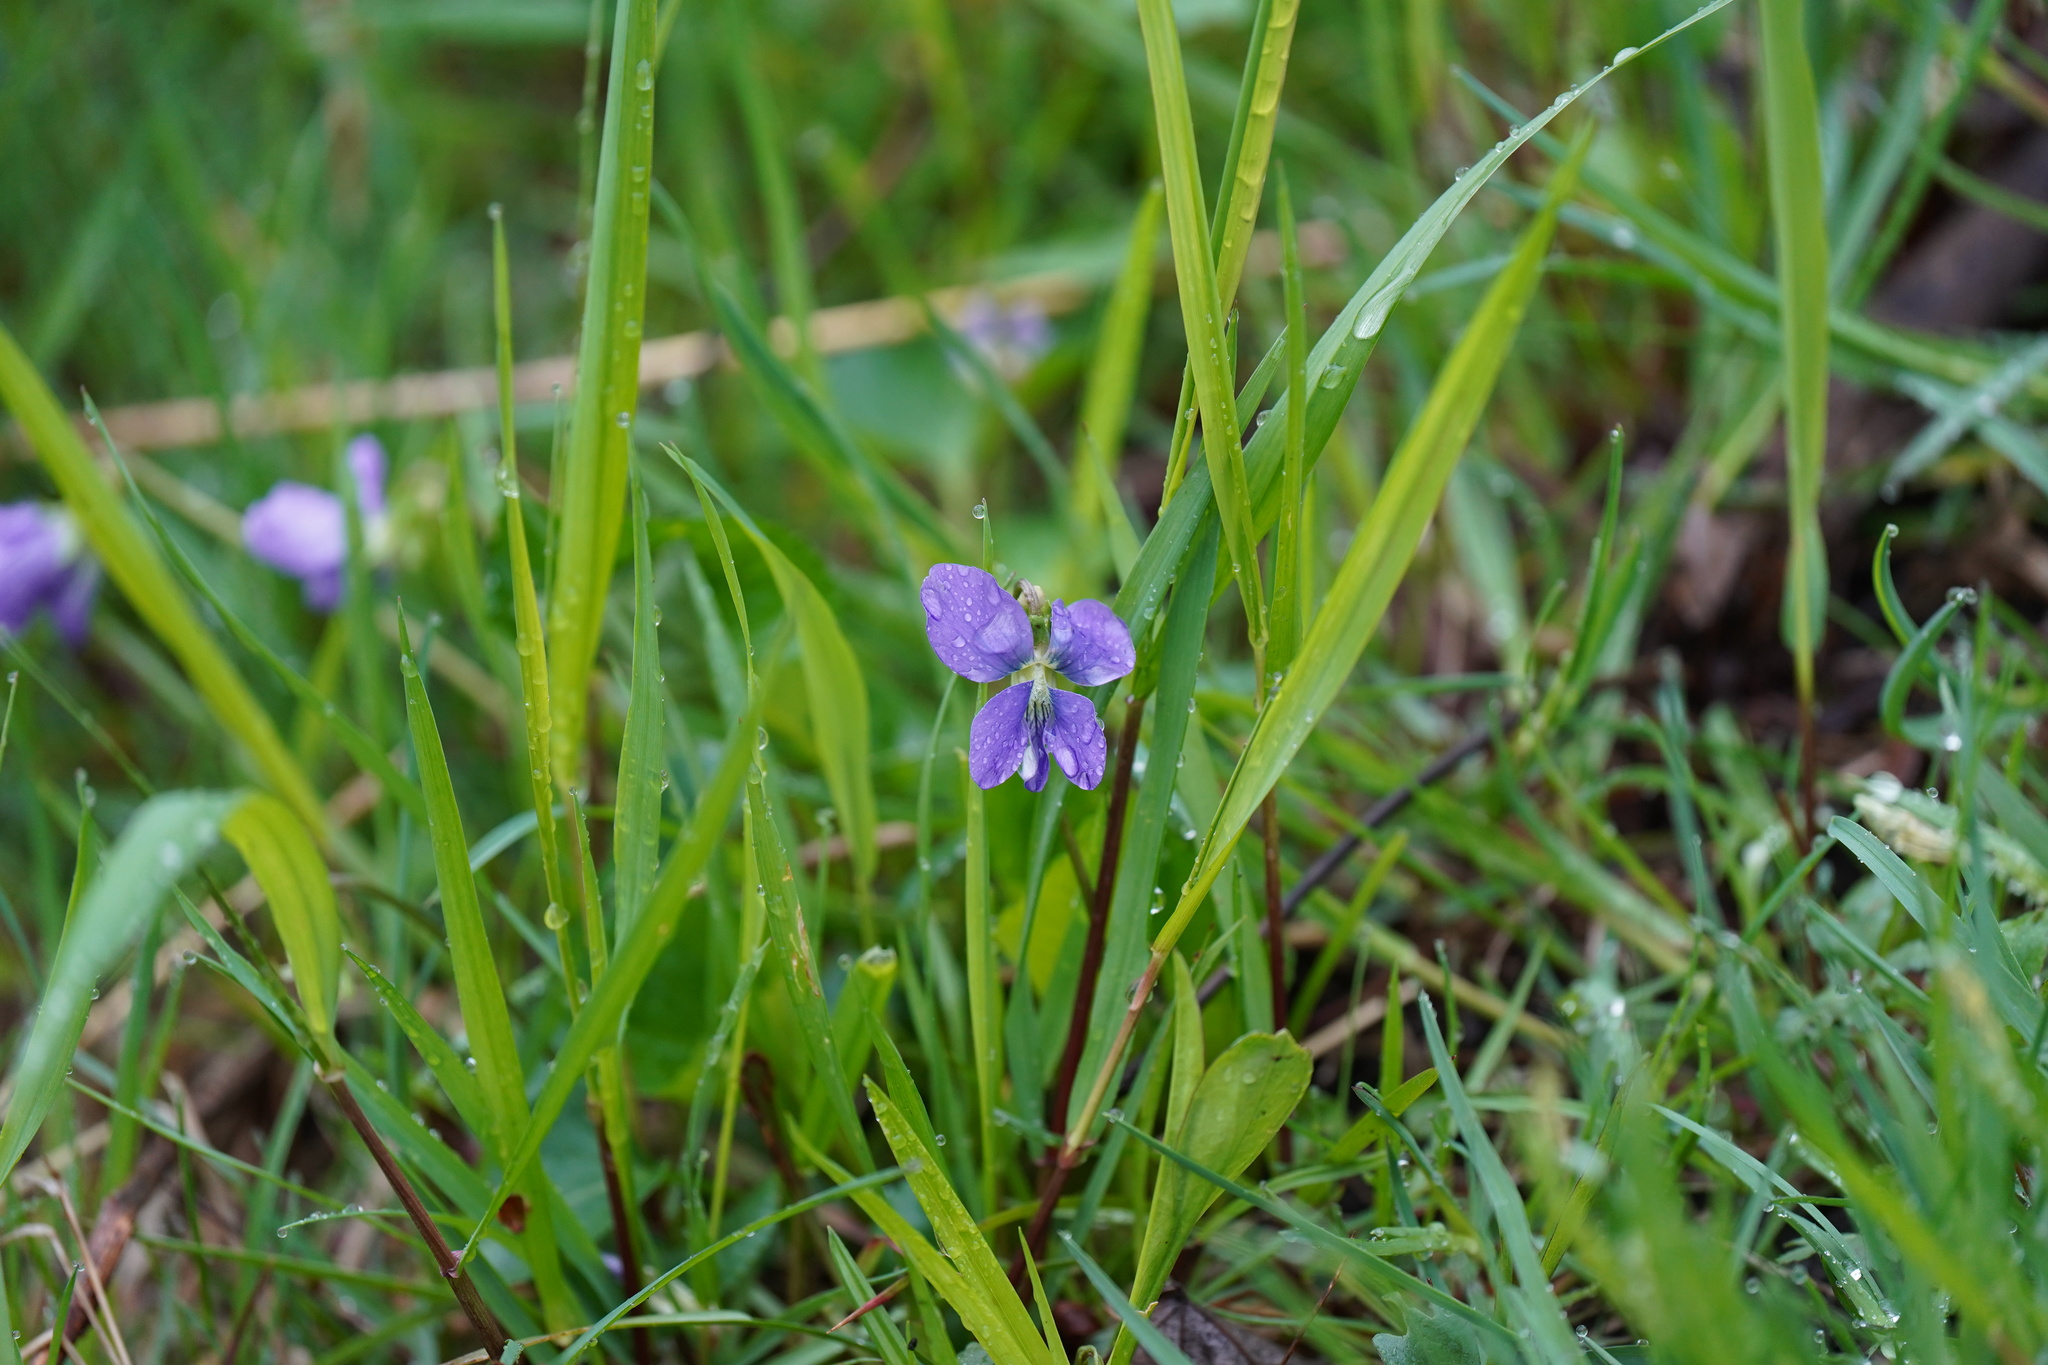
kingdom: Plantae
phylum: Tracheophyta
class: Magnoliopsida
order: Malpighiales
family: Violaceae
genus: Viola
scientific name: Viola sororia
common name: Dooryard violet
